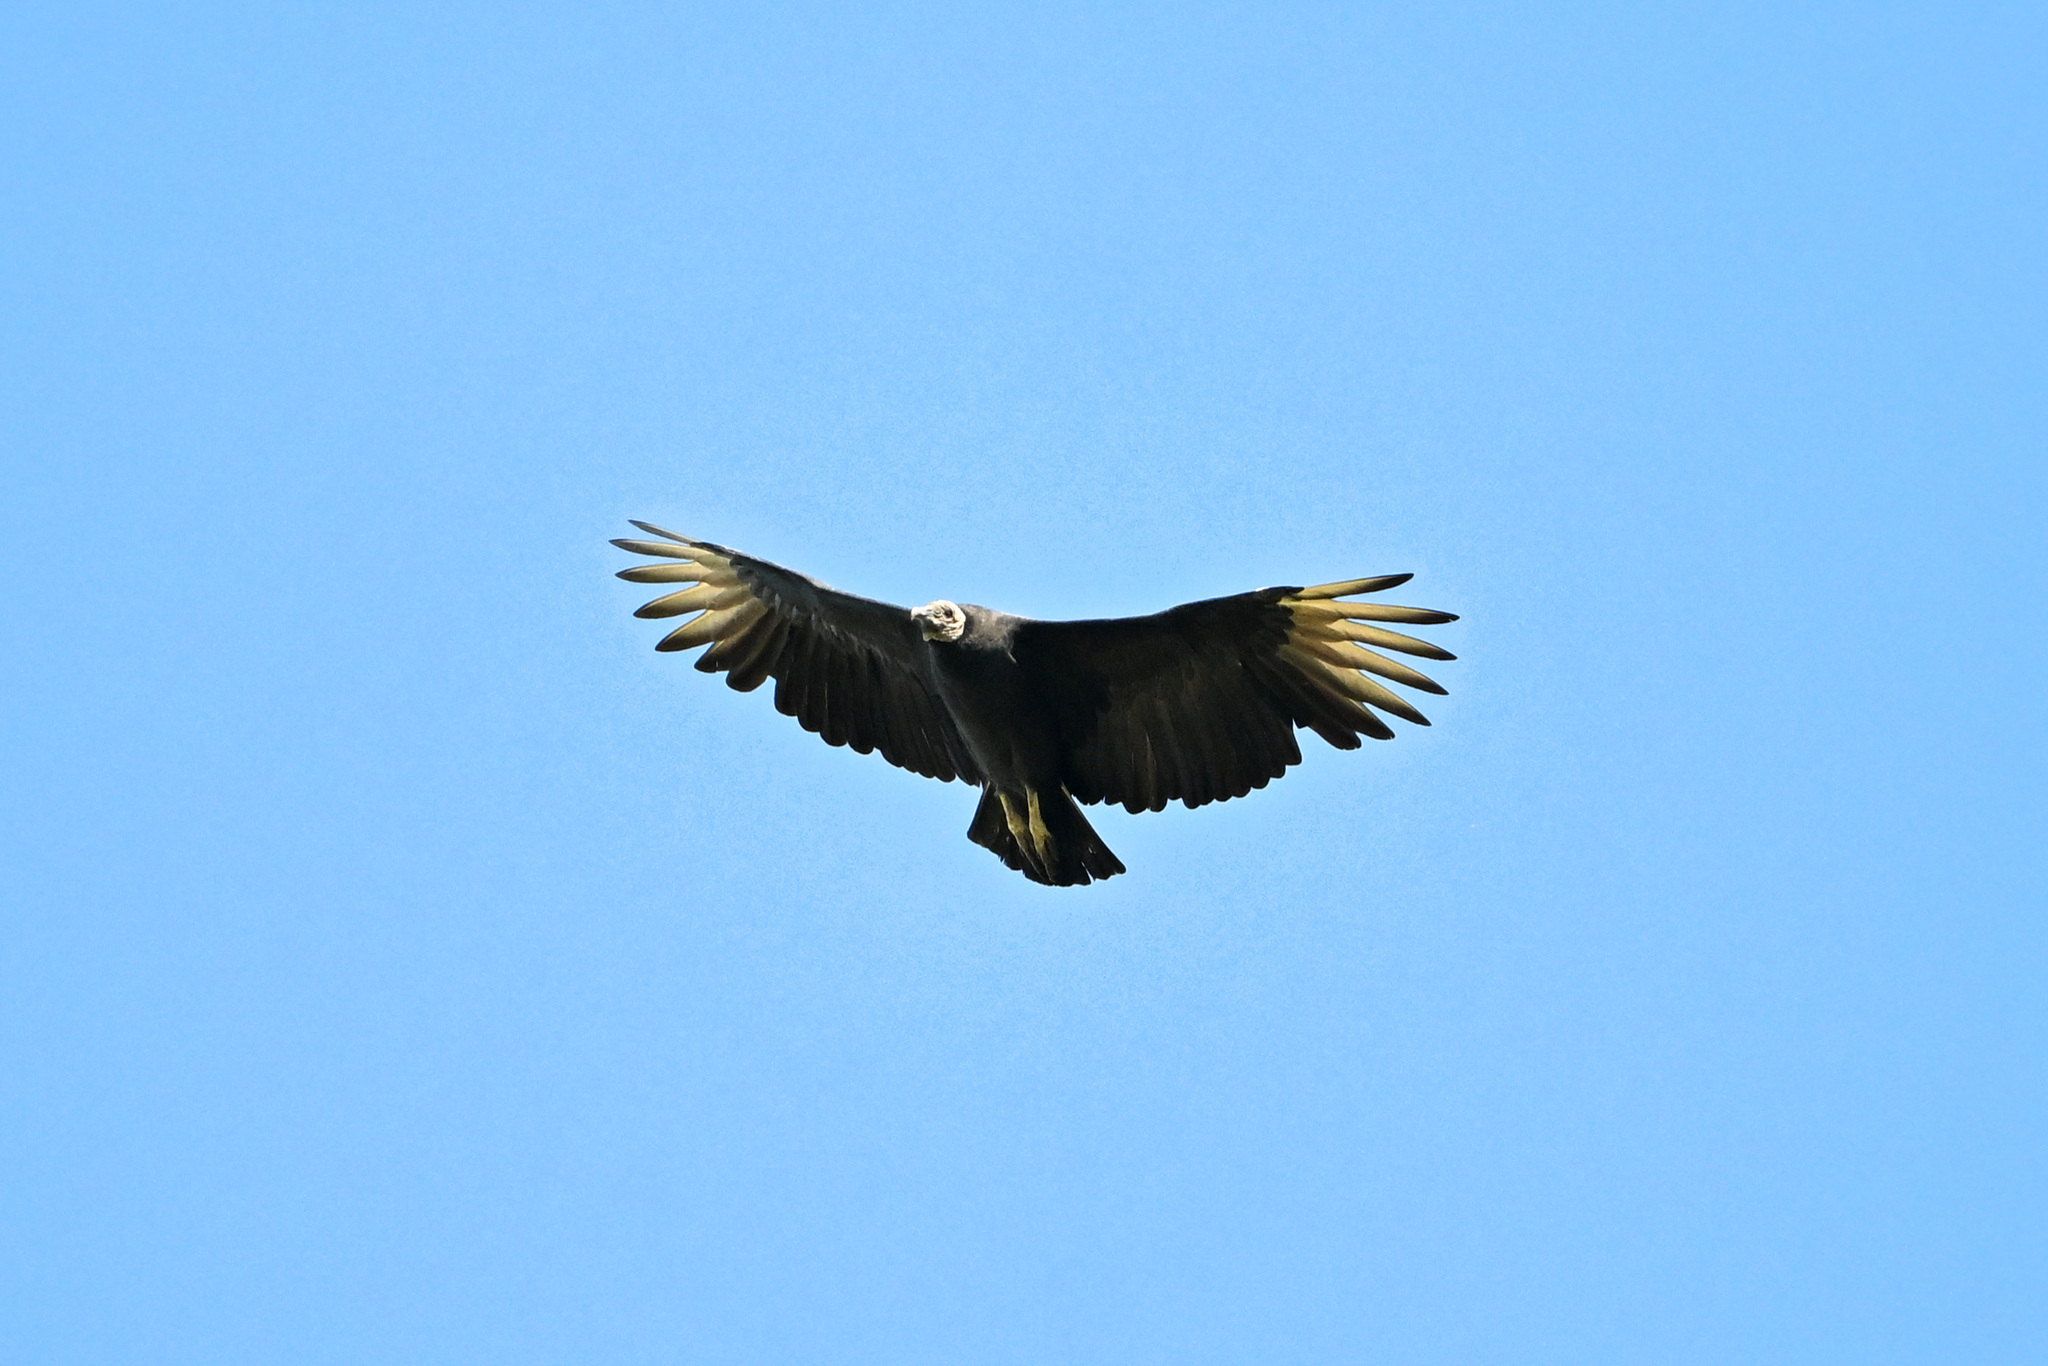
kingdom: Animalia
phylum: Chordata
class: Aves
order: Accipitriformes
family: Cathartidae
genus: Coragyps
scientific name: Coragyps atratus
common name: Black vulture
